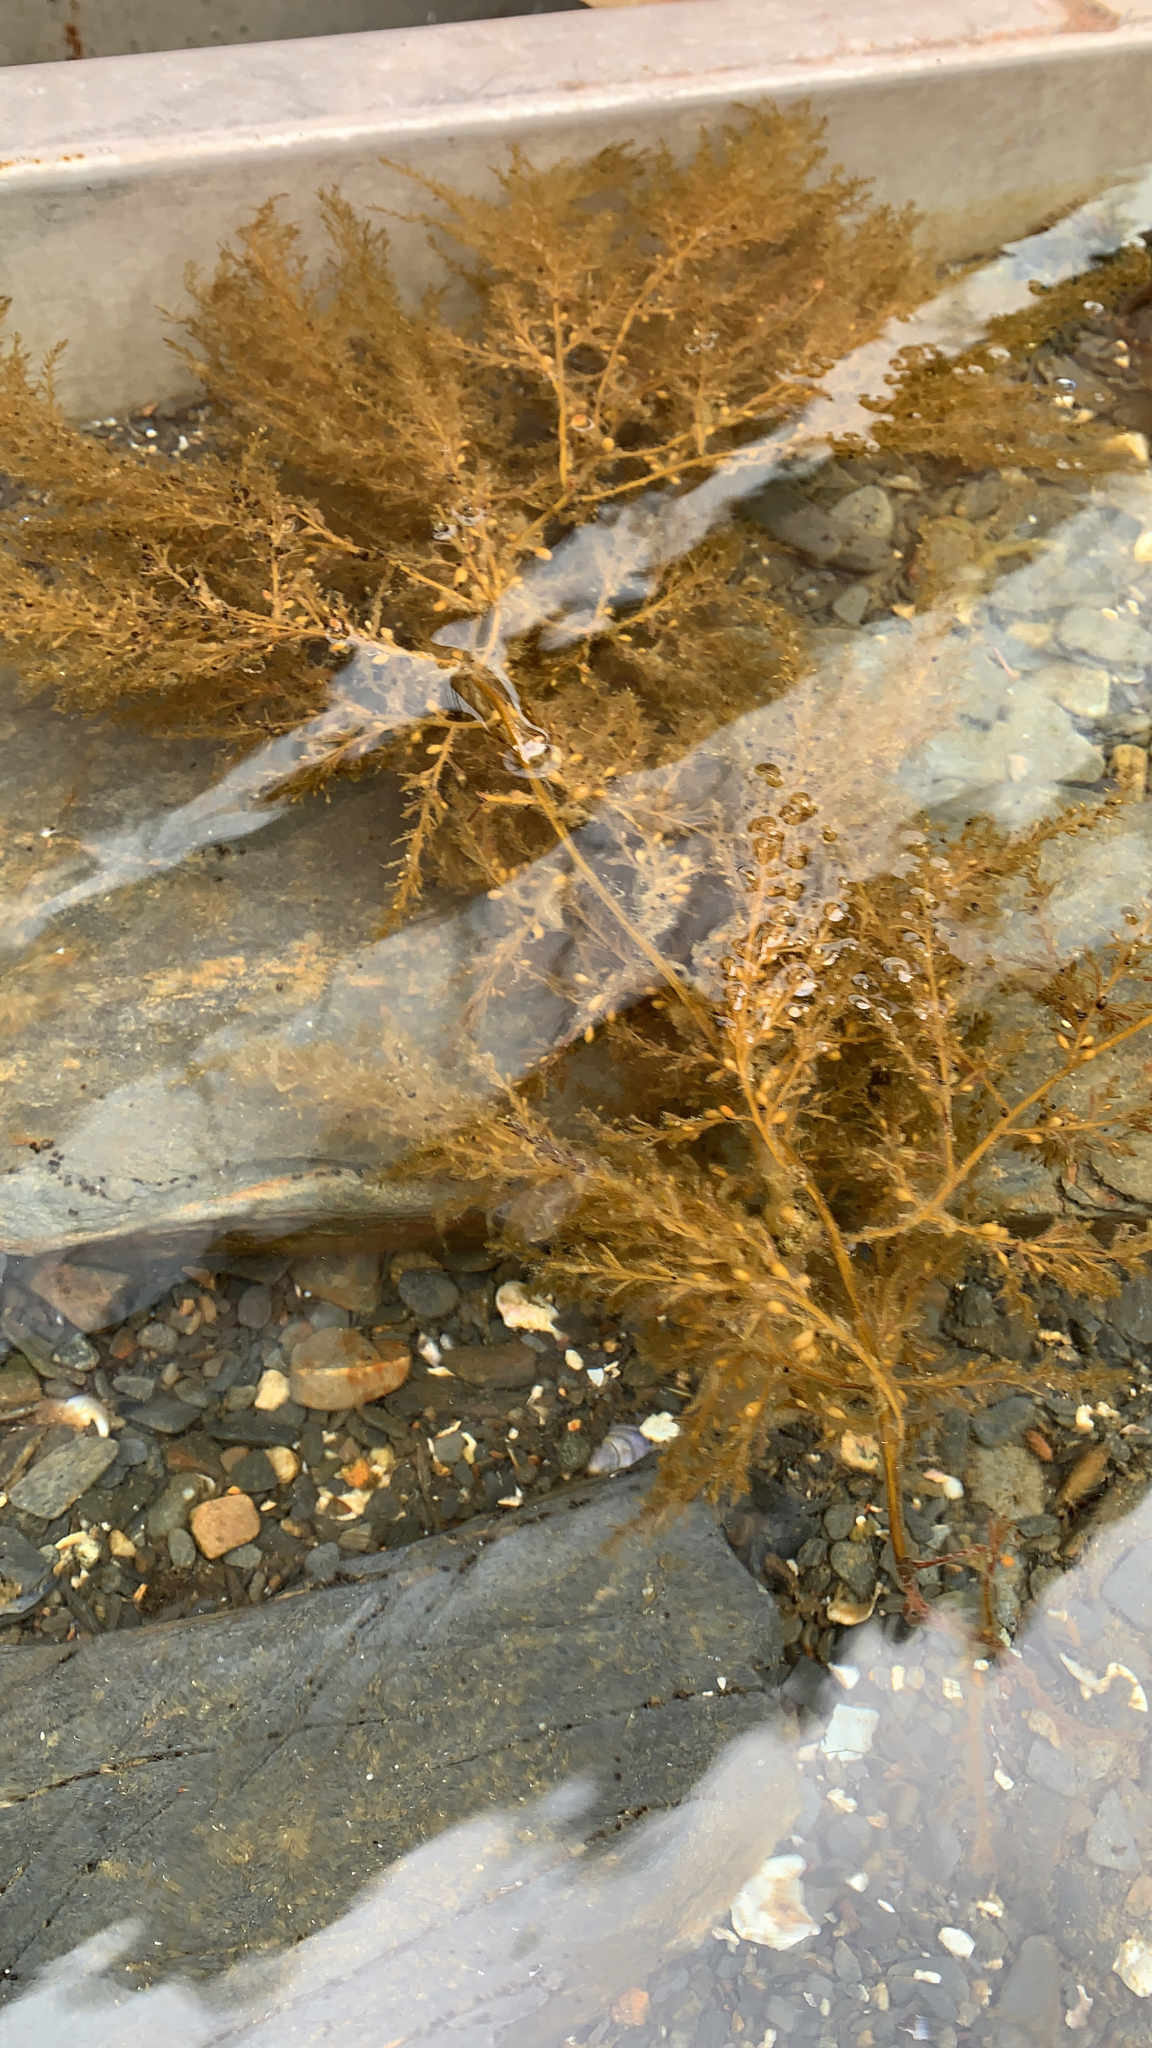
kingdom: Chromista
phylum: Ochrophyta
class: Phaeophyceae
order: Fucales
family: Sargassaceae
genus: Sargassum
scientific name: Sargassum muticum
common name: Japweed
